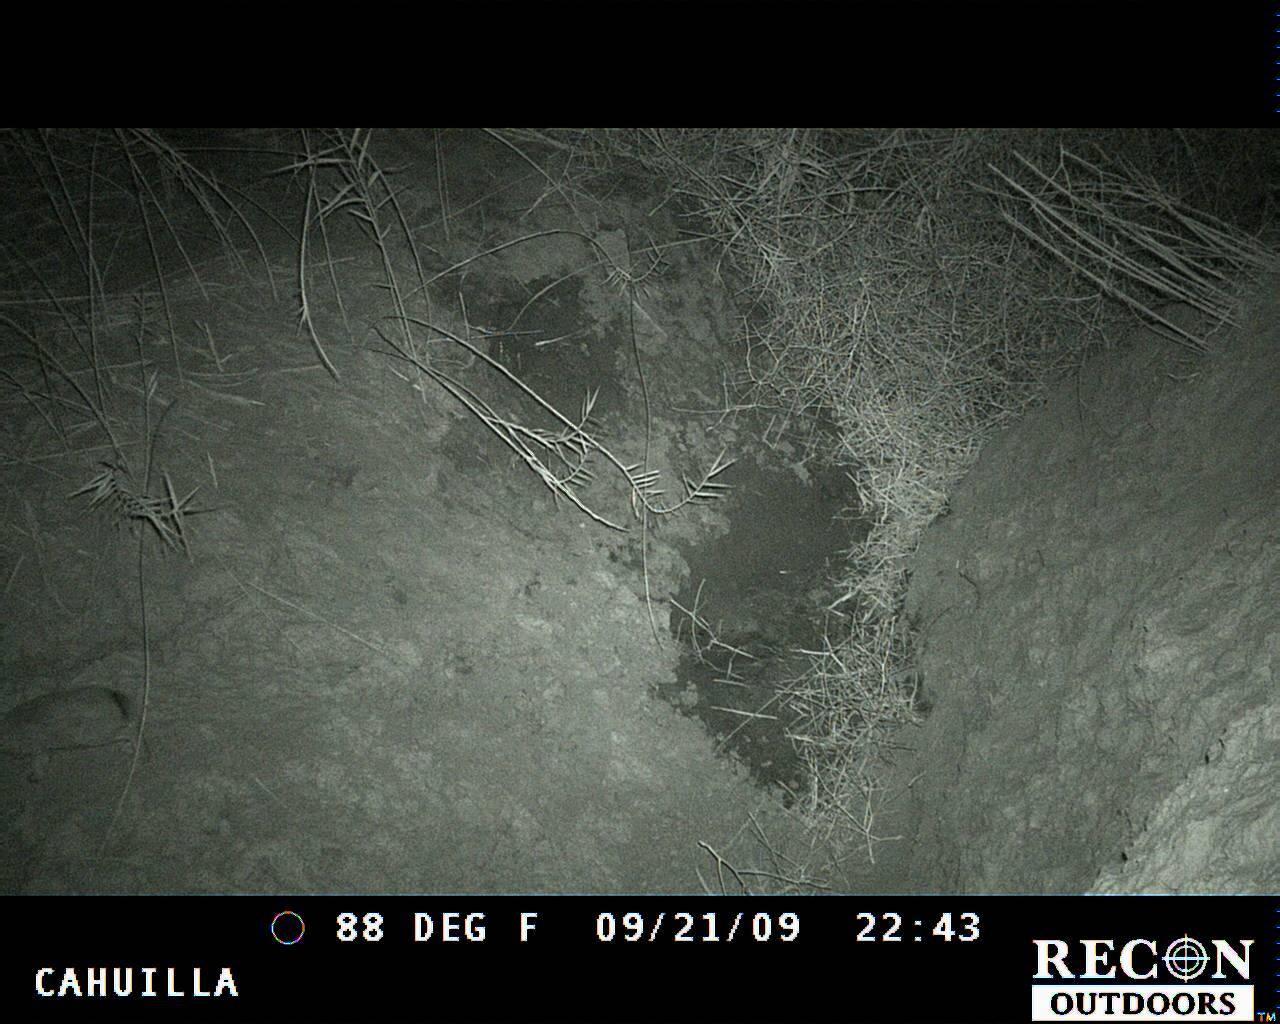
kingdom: Animalia
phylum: Chordata
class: Mammalia
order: Lagomorpha
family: Leporidae
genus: Lepus
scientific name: Lepus californicus
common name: Black-tailed jackrabbit
